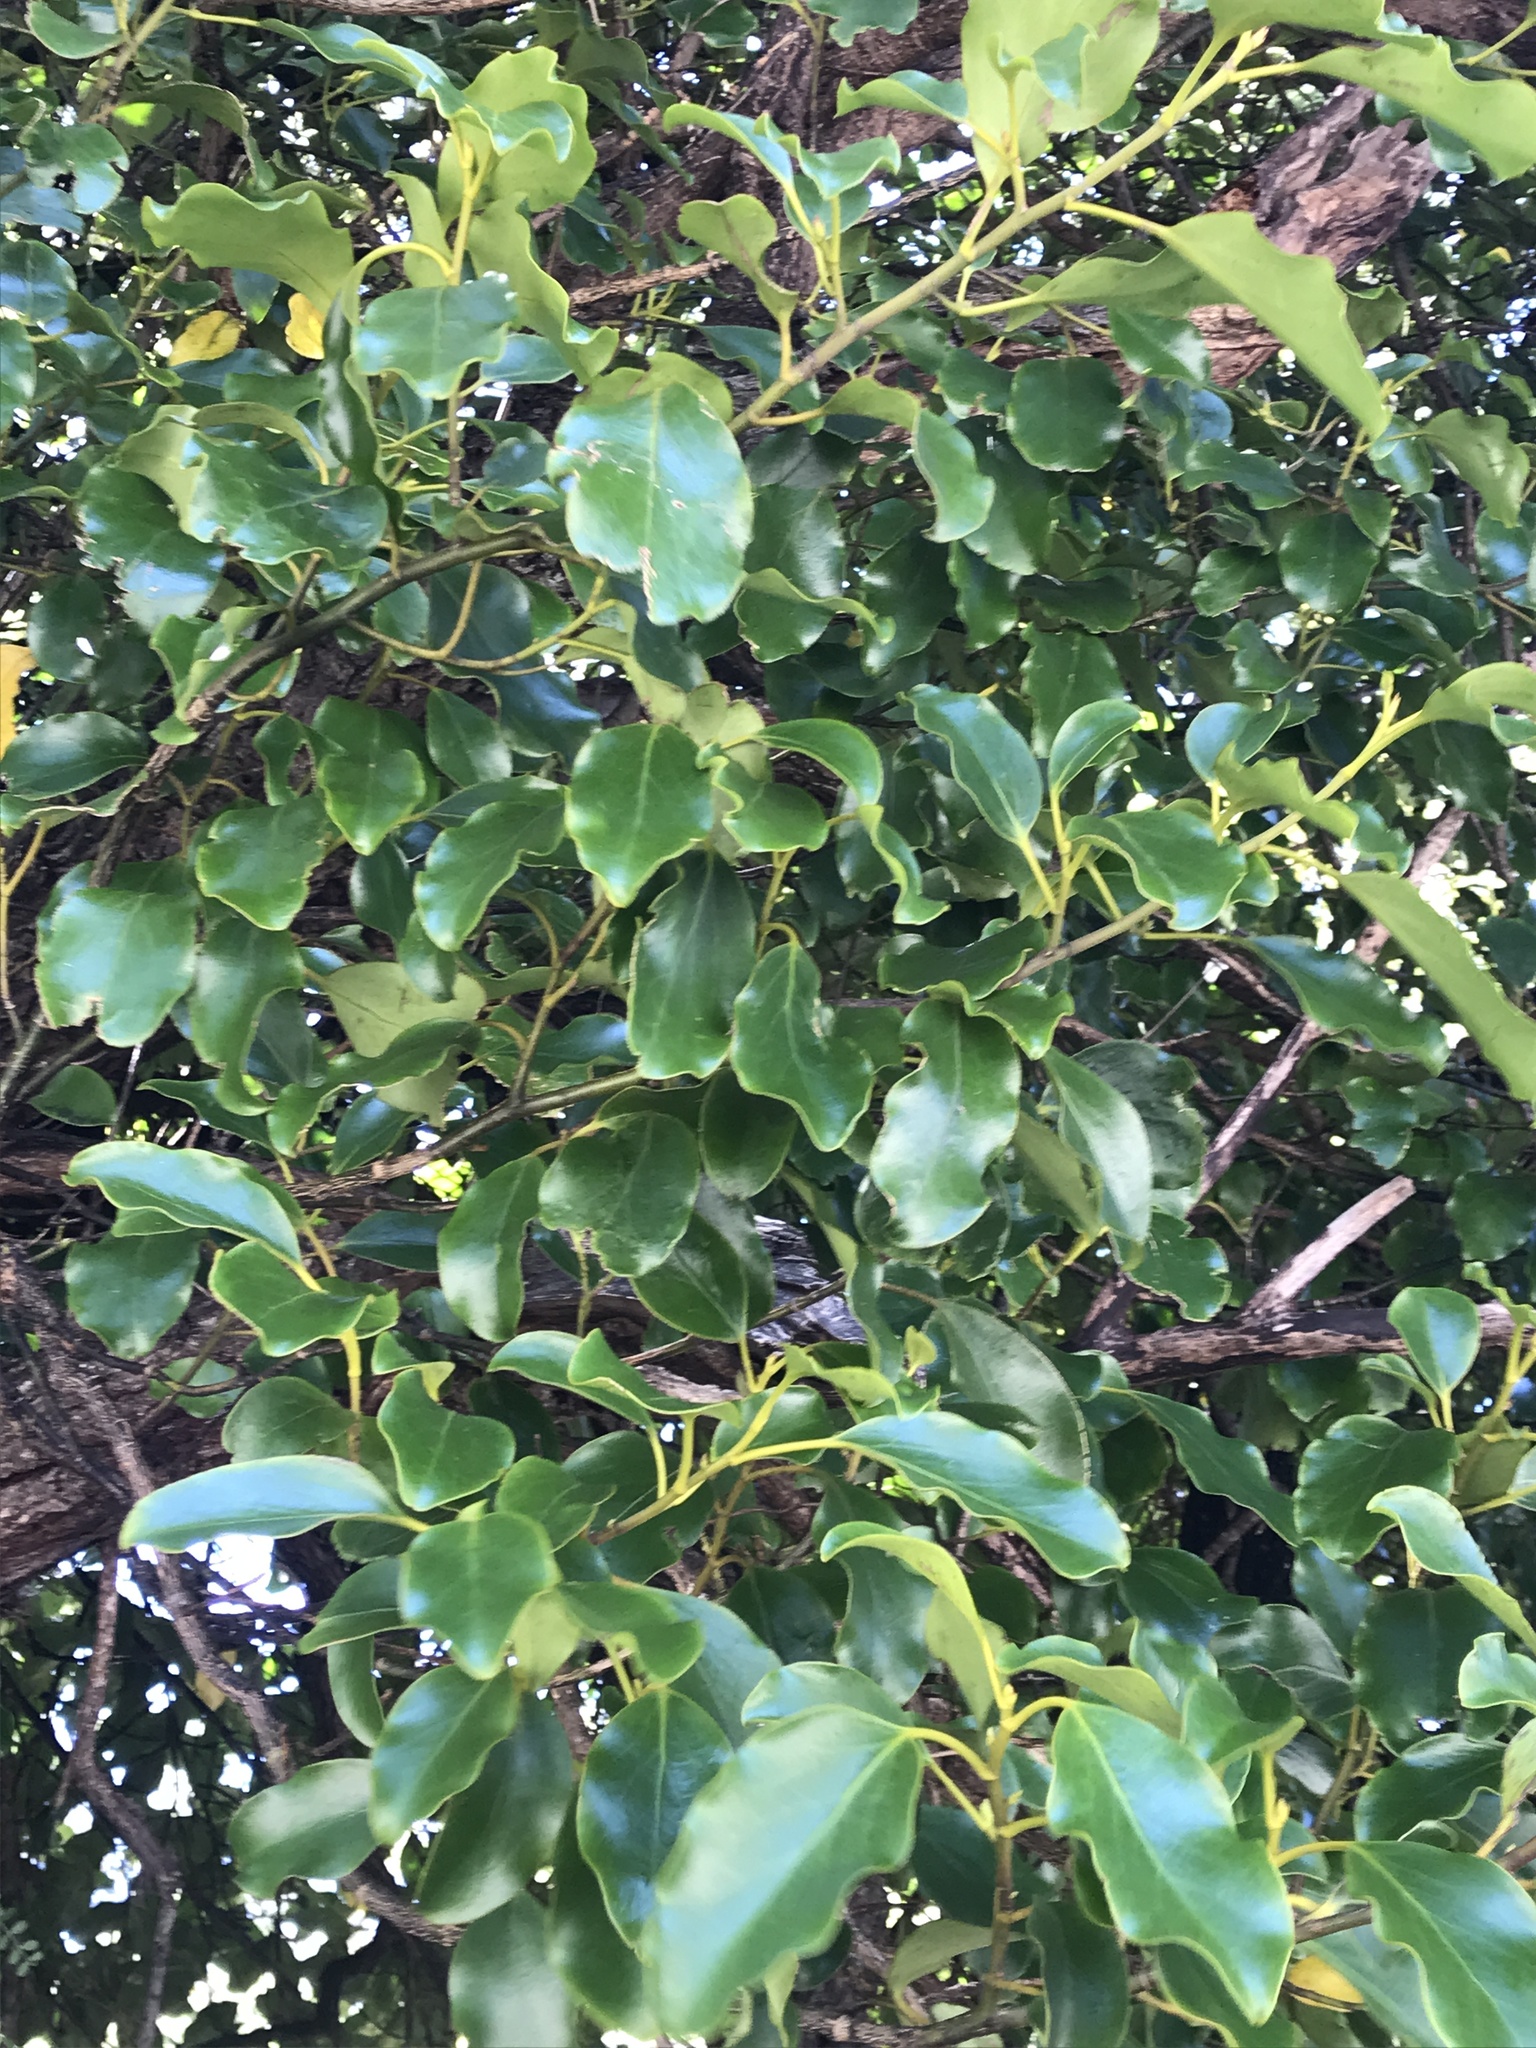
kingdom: Plantae
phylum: Tracheophyta
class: Magnoliopsida
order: Apiales
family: Griseliniaceae
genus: Griselinia
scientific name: Griselinia littoralis
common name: New zealand broadleaf
